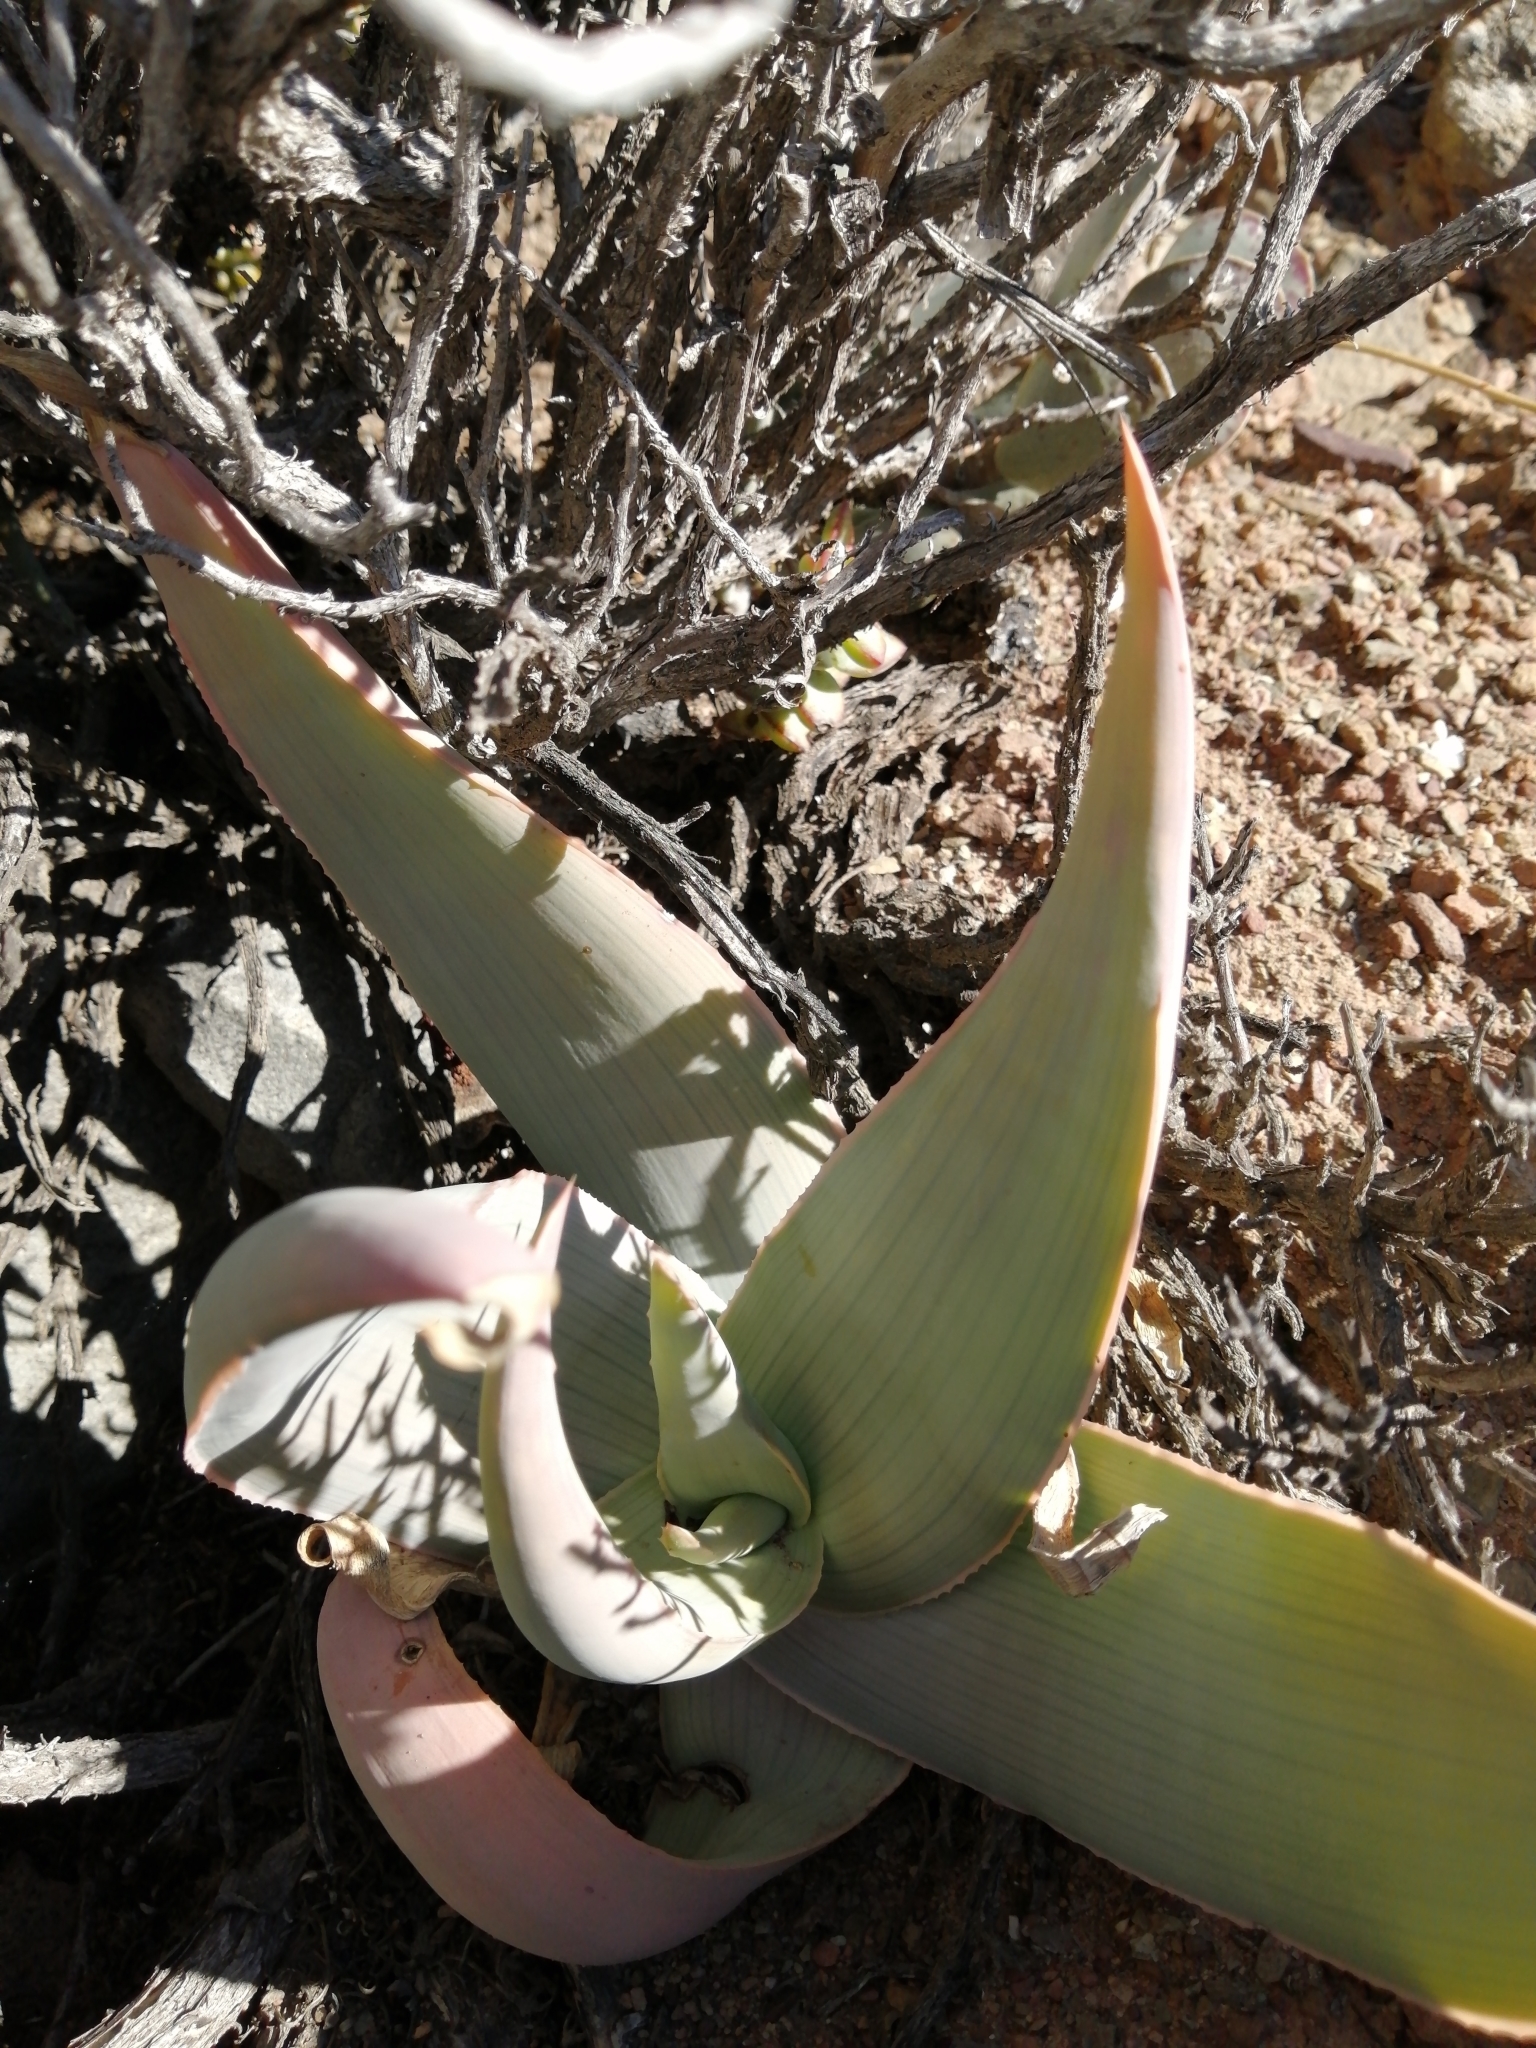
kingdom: Plantae
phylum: Tracheophyta
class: Liliopsida
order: Asparagales
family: Asphodelaceae
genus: Aloe
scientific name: Aloe striata
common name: Coral aloe
